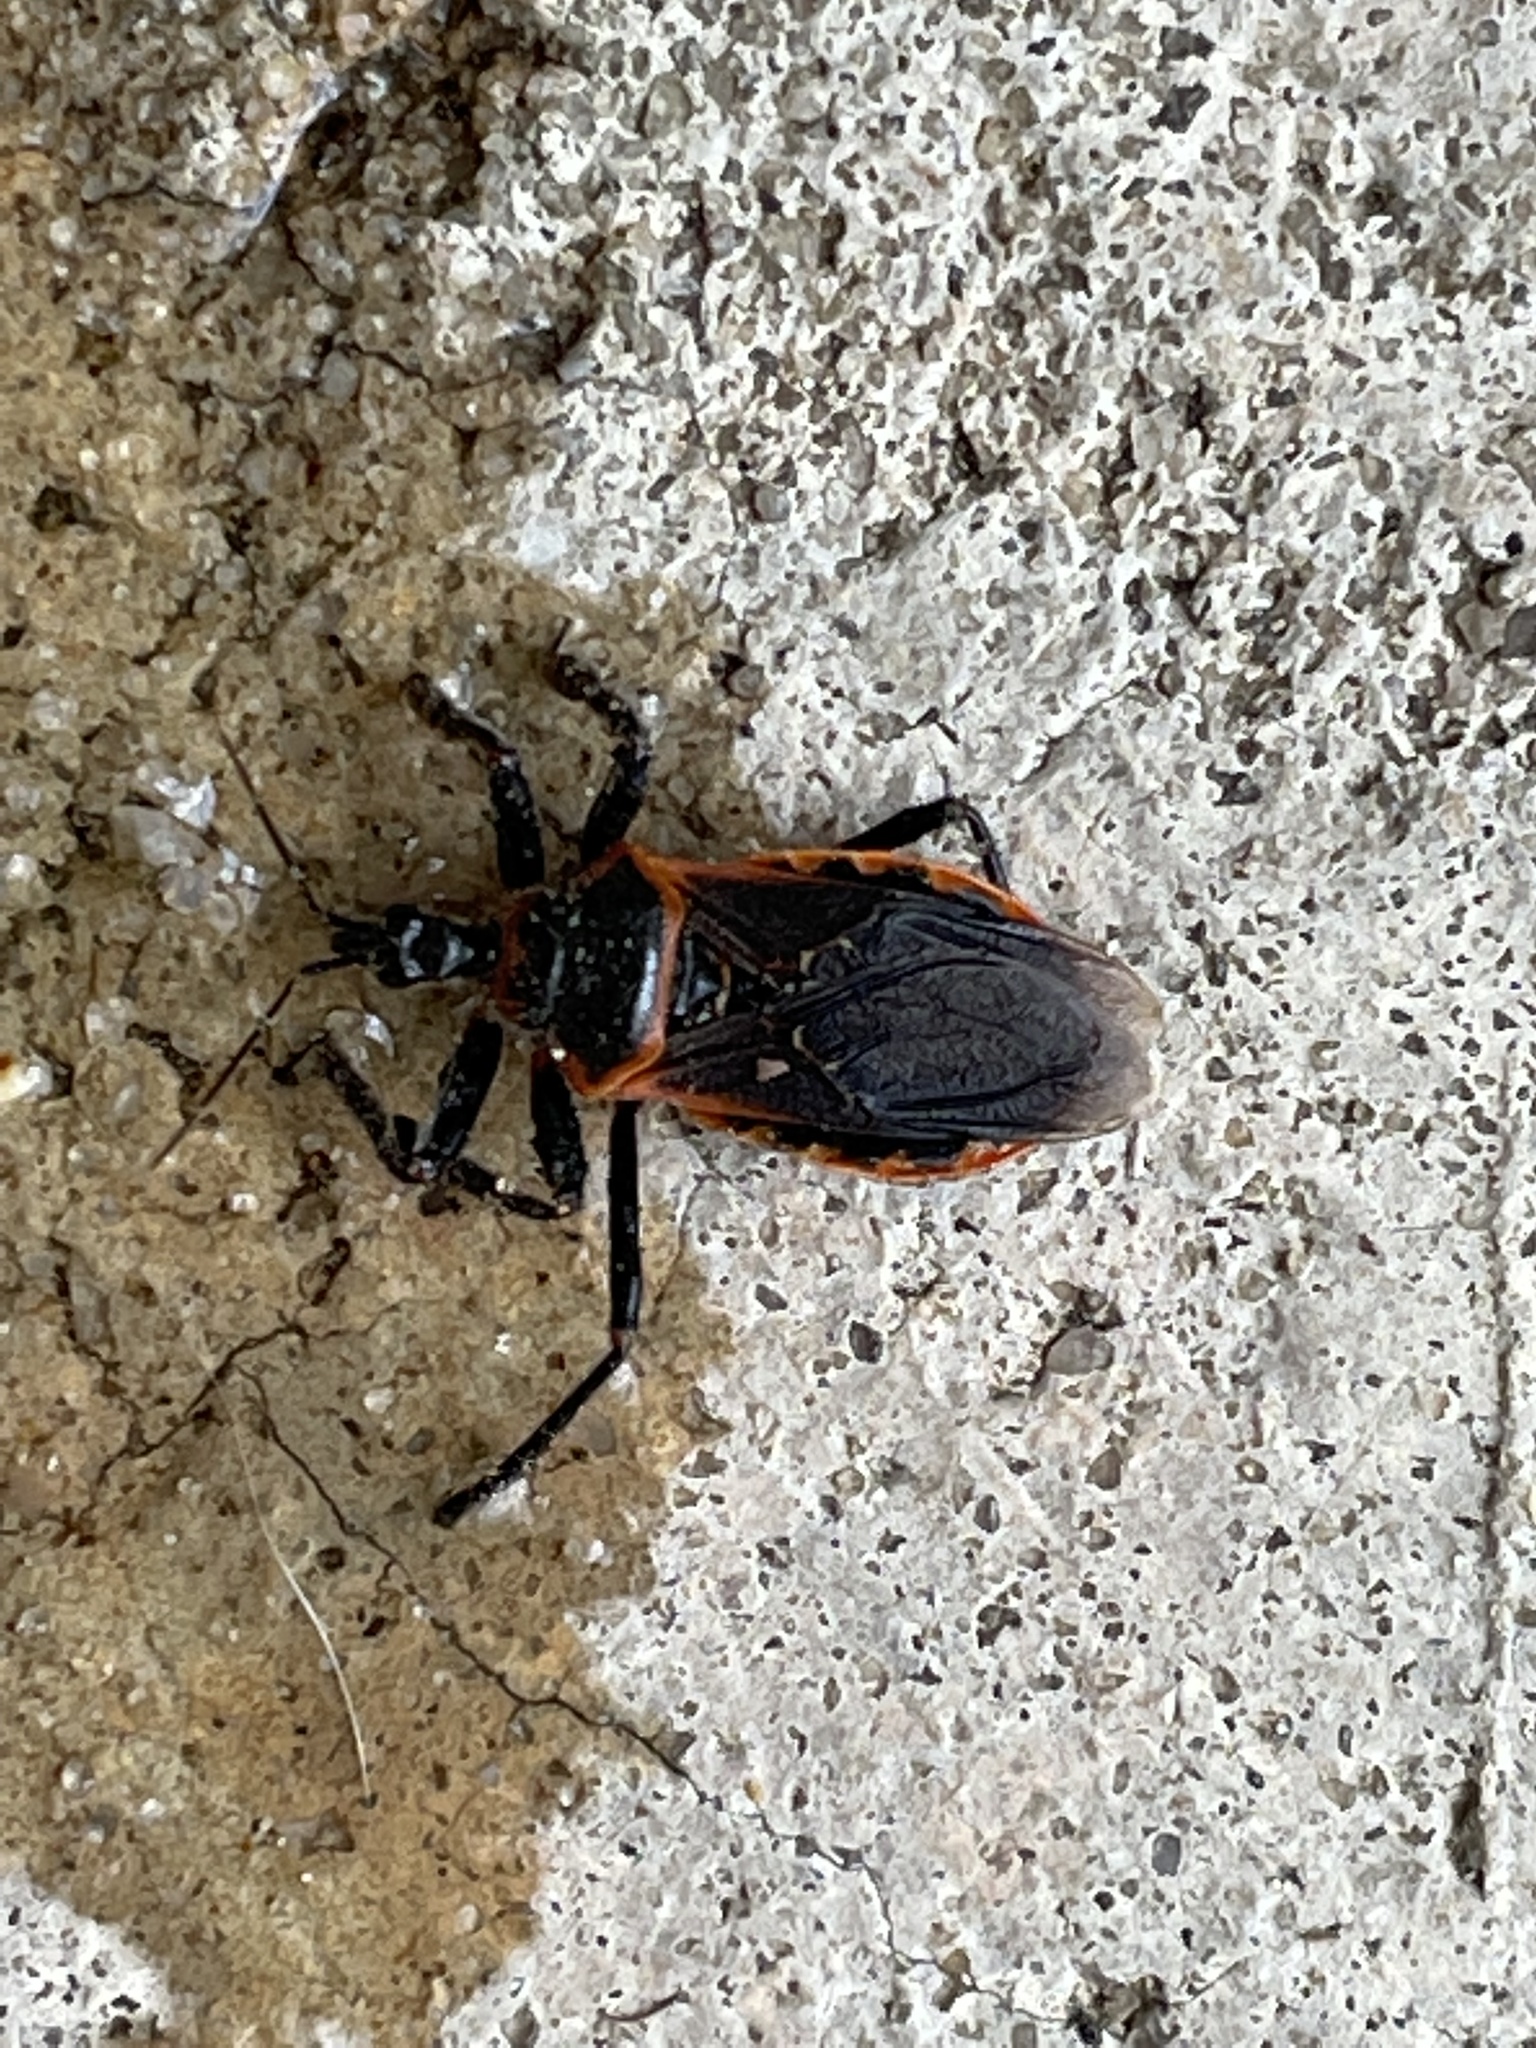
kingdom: Animalia
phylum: Arthropoda
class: Insecta
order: Hemiptera
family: Reduviidae
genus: Apiomerus
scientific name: Apiomerus crassipes
